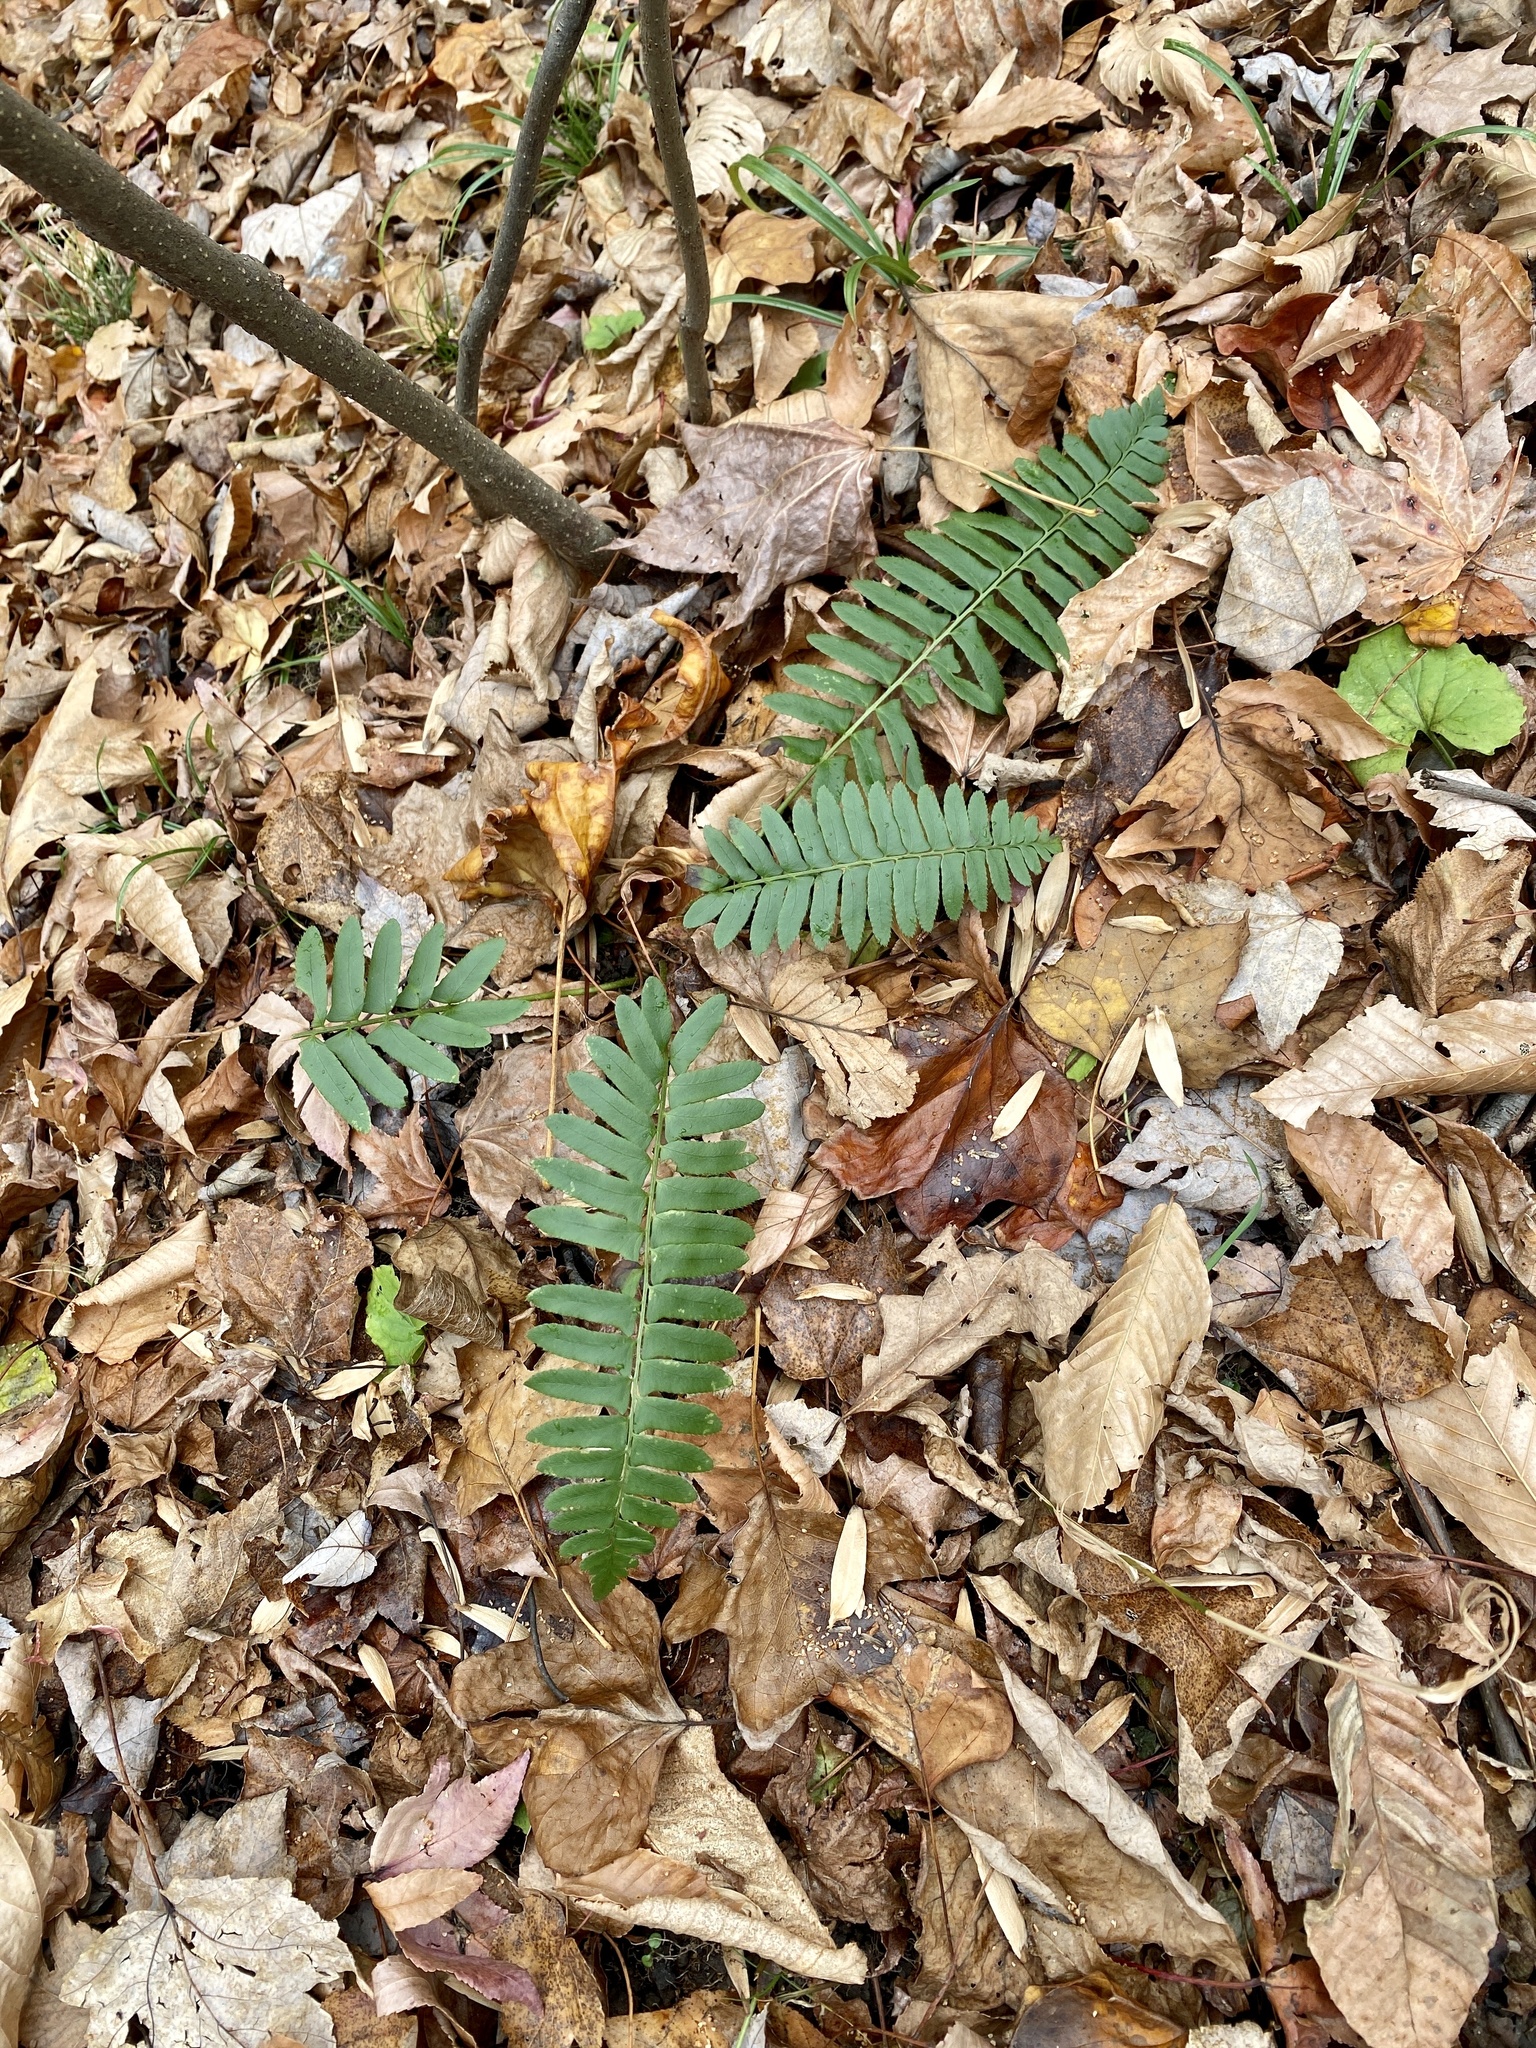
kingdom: Plantae
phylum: Tracheophyta
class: Polypodiopsida
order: Polypodiales
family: Dryopteridaceae
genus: Polystichum
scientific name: Polystichum acrostichoides
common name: Christmas fern
